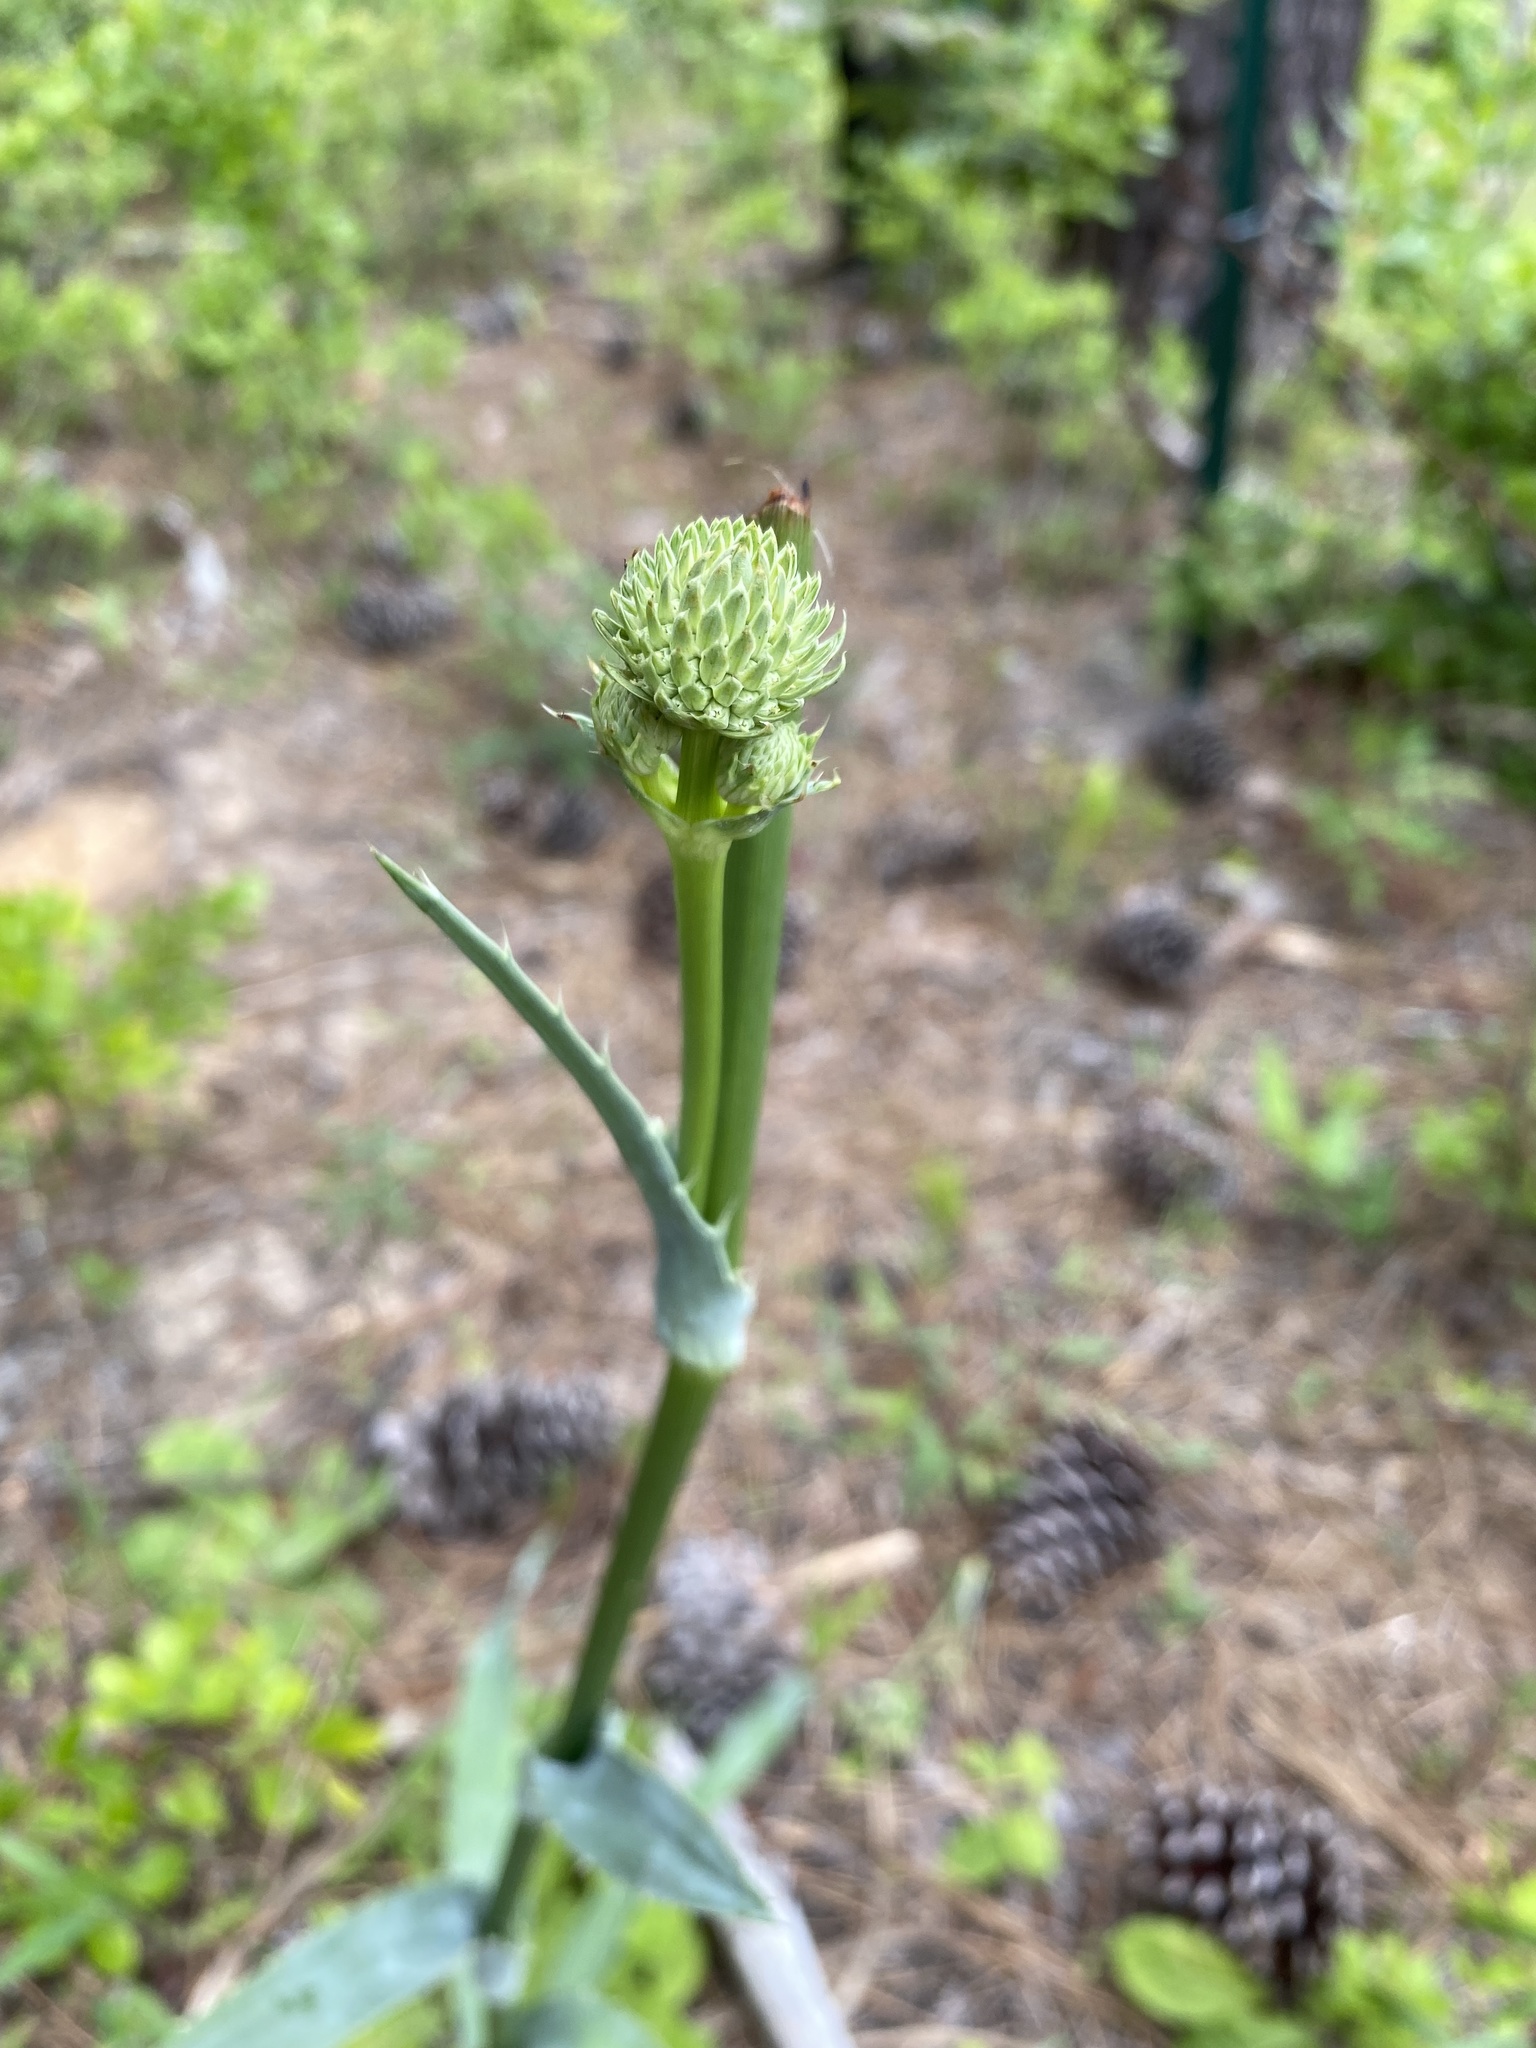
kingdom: Plantae
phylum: Tracheophyta
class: Magnoliopsida
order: Apiales
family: Apiaceae
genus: Eryngium
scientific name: Eryngium yuccifolium
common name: Button eryngo
